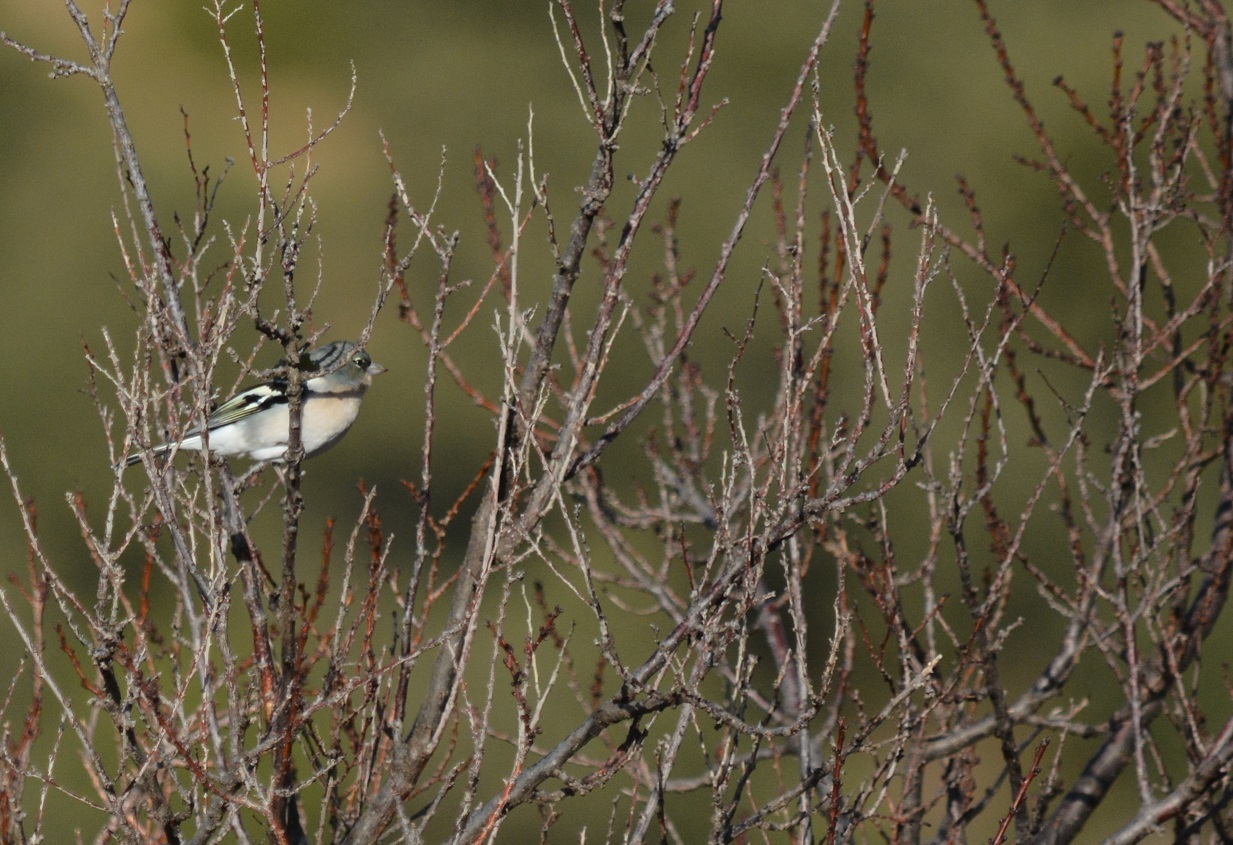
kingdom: Animalia
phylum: Chordata
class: Aves
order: Passeriformes
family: Fringillidae
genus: Fringilla
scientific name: Fringilla spodiogenys
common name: African chaffinch
